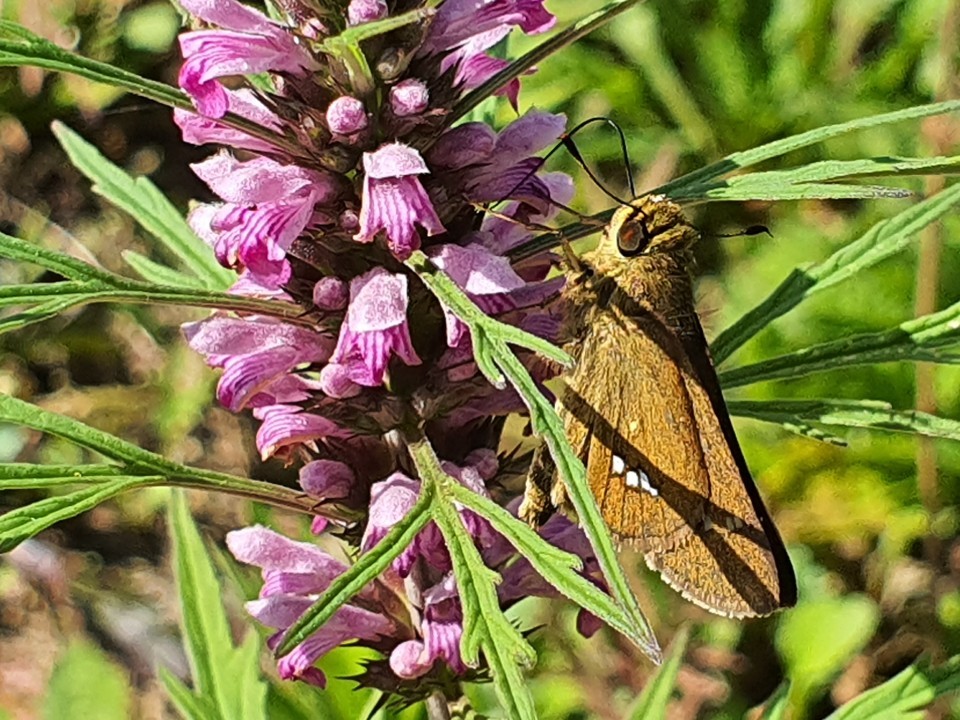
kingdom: Animalia
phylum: Arthropoda
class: Insecta
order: Lepidoptera
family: Hesperiidae
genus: Parnara
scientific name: Parnara guttatus
